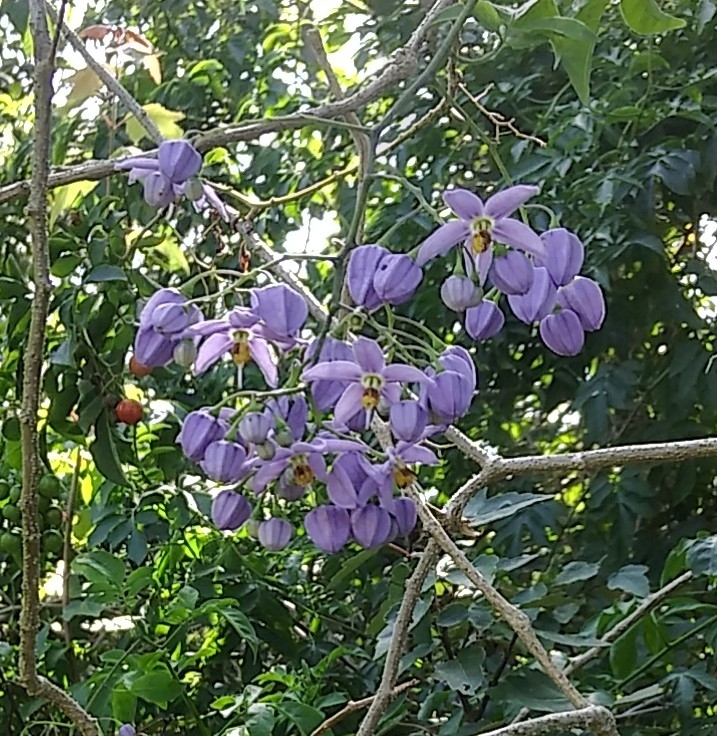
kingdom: Plantae
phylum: Tracheophyta
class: Magnoliopsida
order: Solanales
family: Solanaceae
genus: Solanum
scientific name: Solanum seaforthianum
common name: Brazilian nightshade
